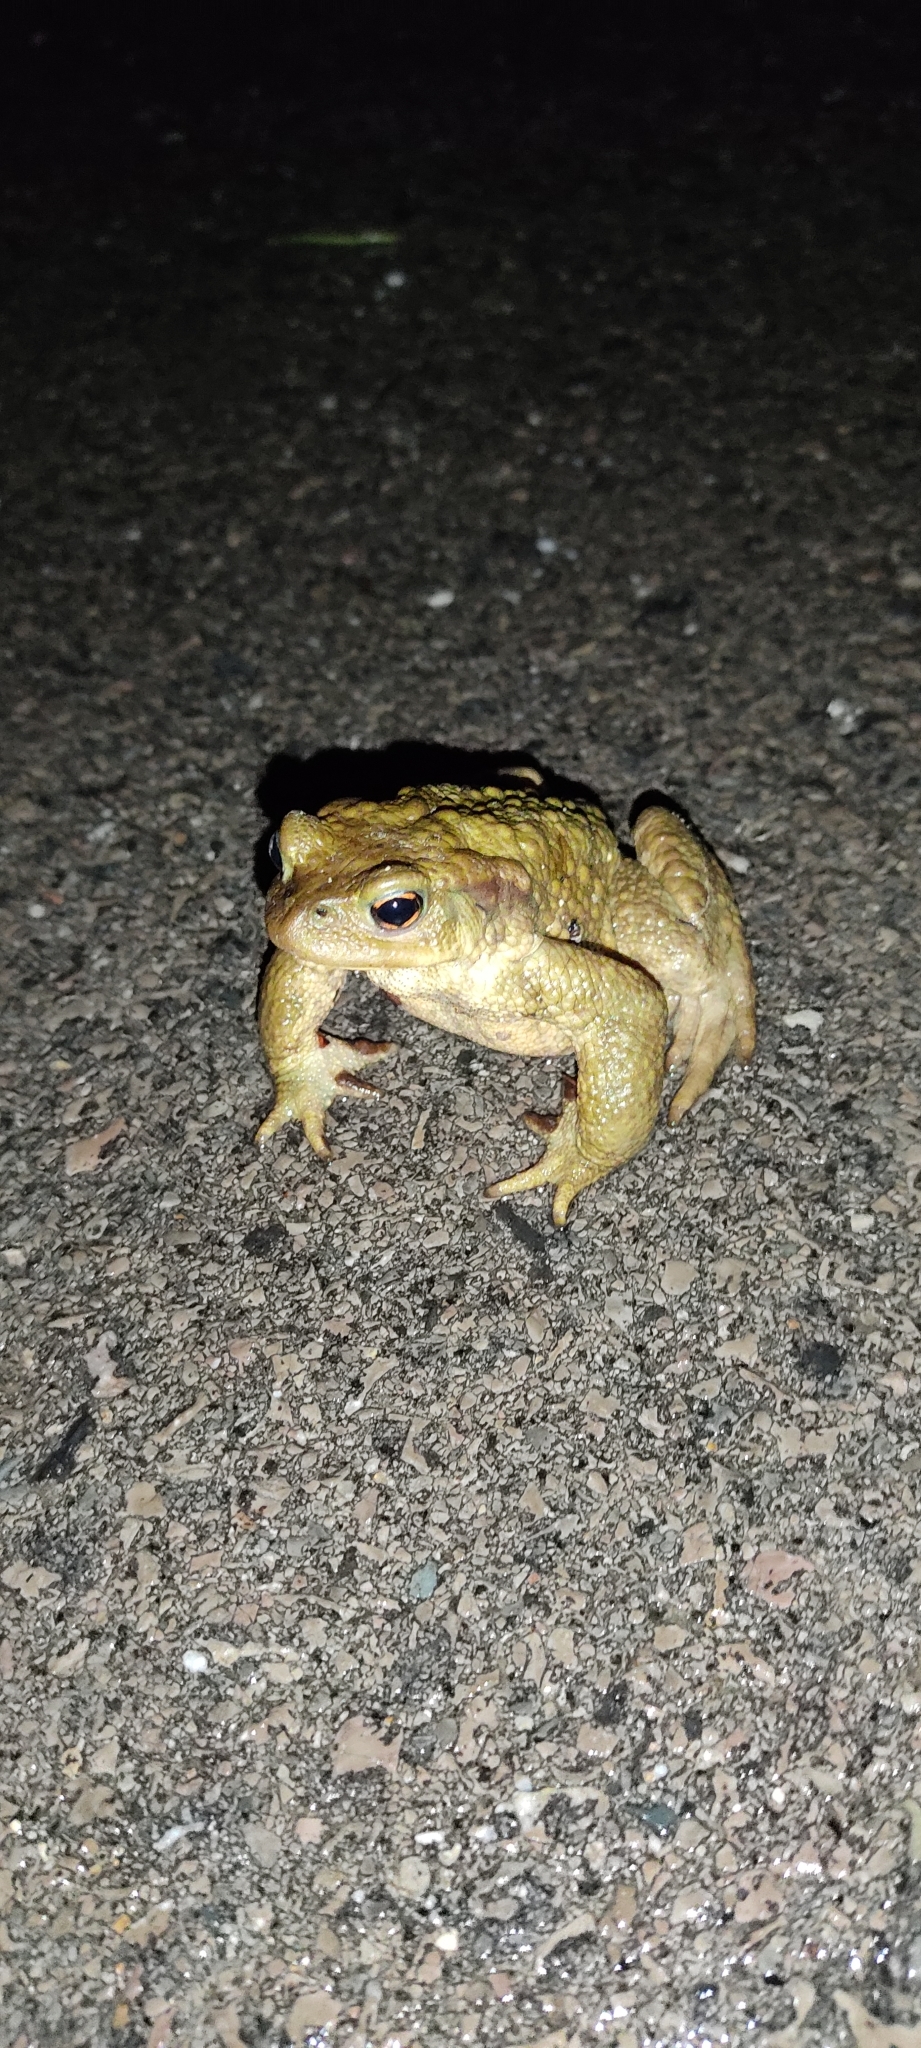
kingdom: Animalia
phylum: Chordata
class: Amphibia
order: Anura
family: Bufonidae
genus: Bufo
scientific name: Bufo spinosus
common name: Western common toad
